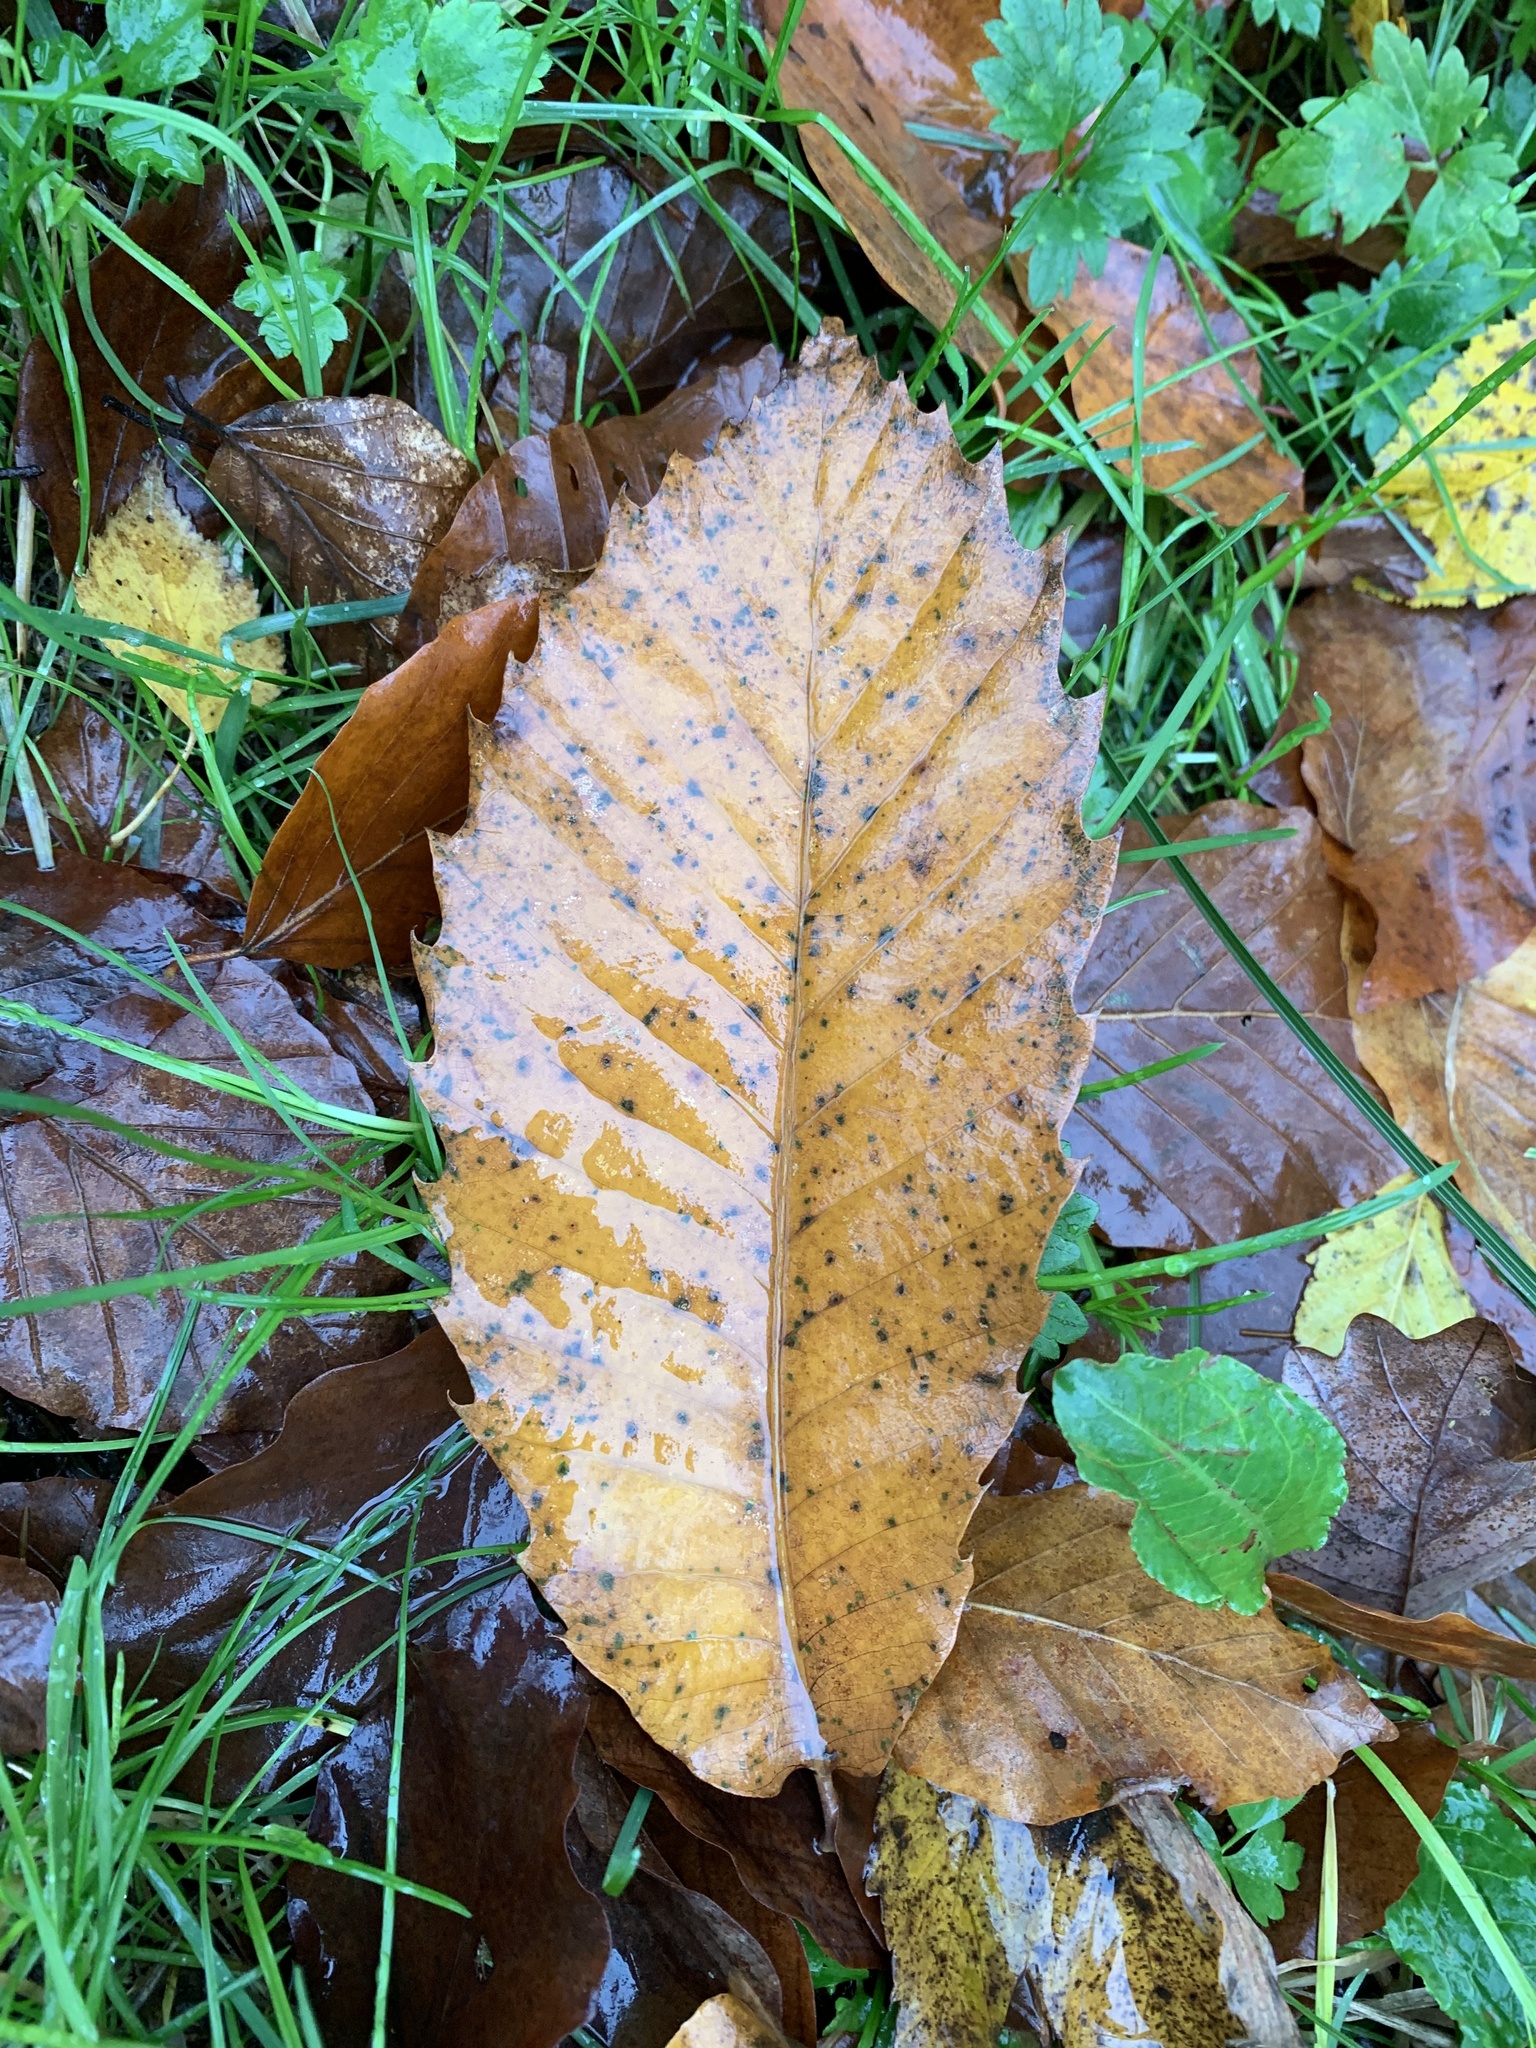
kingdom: Plantae
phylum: Tracheophyta
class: Magnoliopsida
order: Fagales
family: Fagaceae
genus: Castanea
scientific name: Castanea sativa
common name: Sweet chestnut
